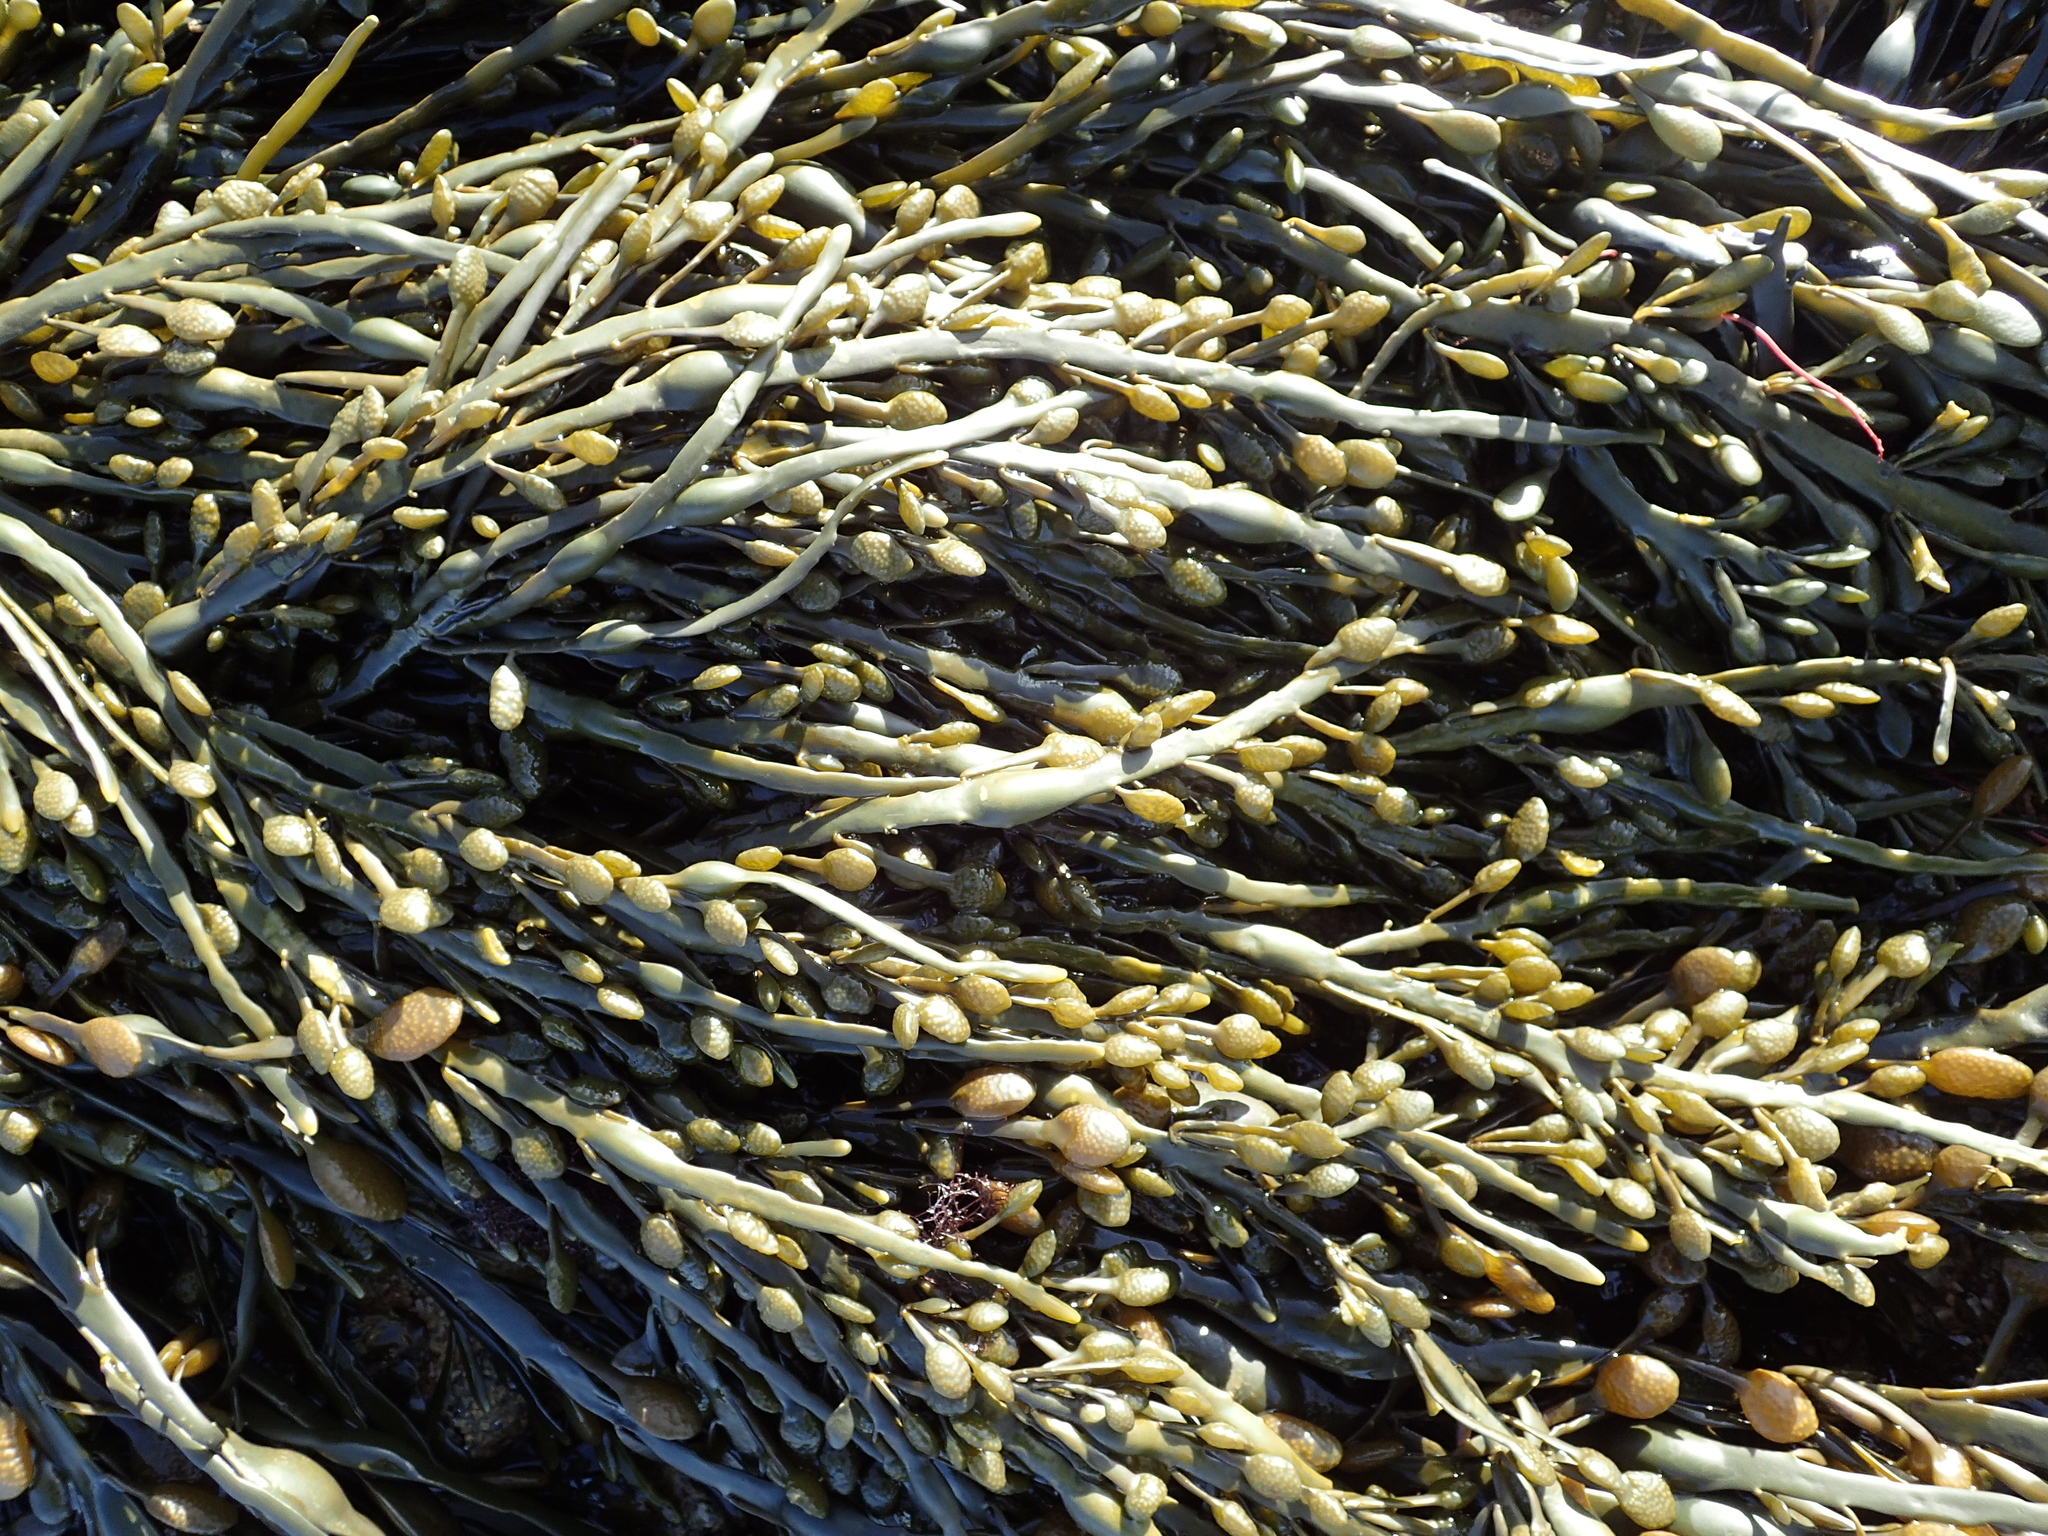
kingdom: Chromista
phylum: Ochrophyta
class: Phaeophyceae
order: Fucales
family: Fucaceae
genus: Ascophyllum
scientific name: Ascophyllum nodosum
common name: Knotted wrack
